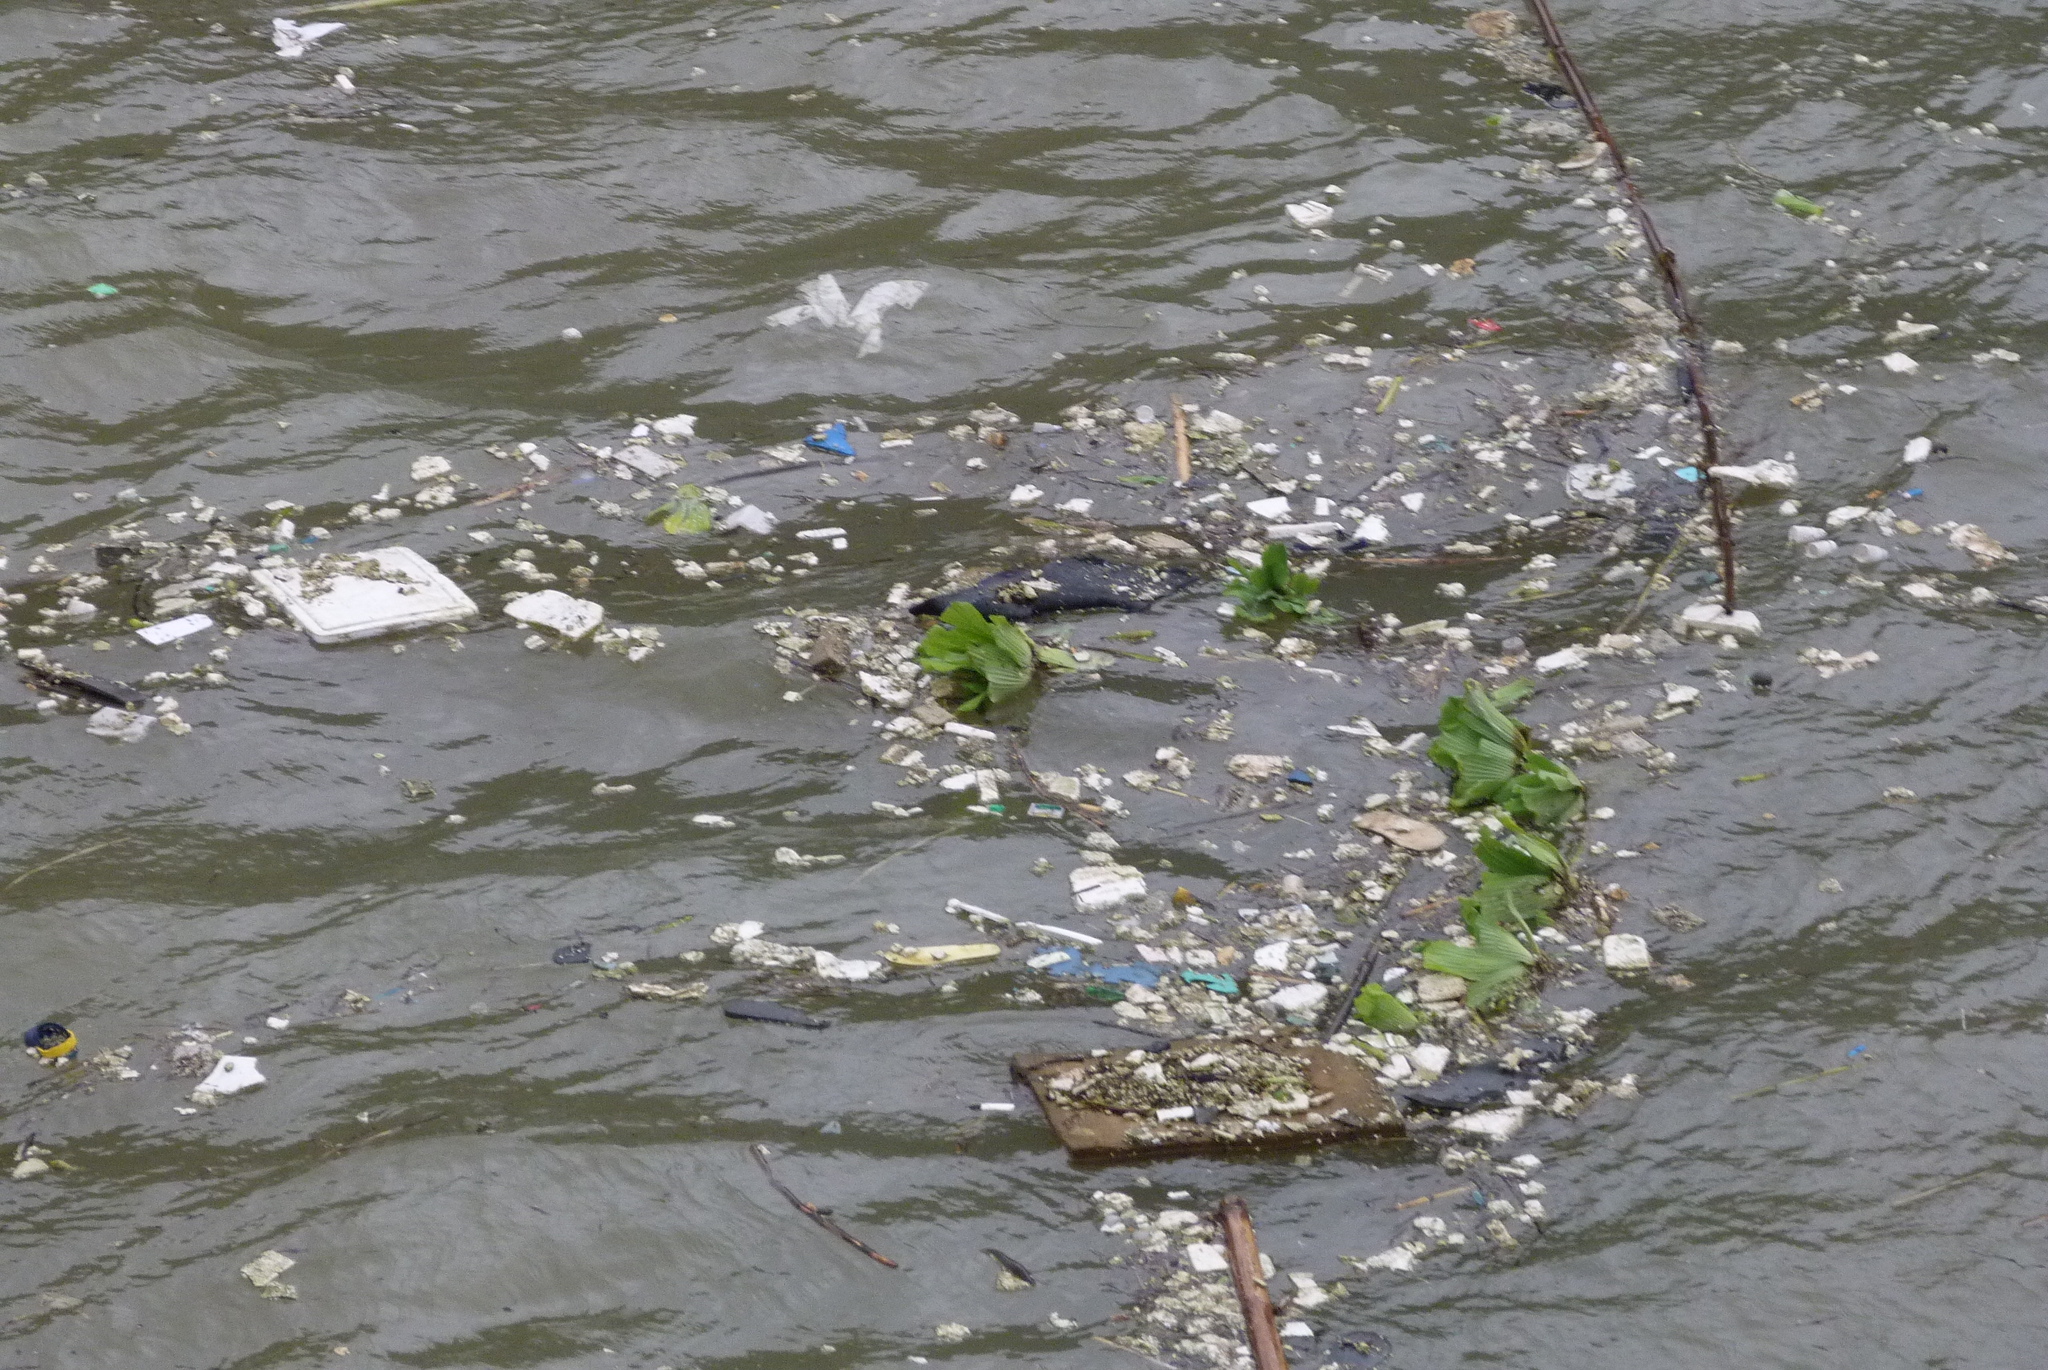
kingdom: Plantae
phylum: Tracheophyta
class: Liliopsida
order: Alismatales
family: Araceae
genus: Pistia
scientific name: Pistia stratiotes
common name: Water lettuce
